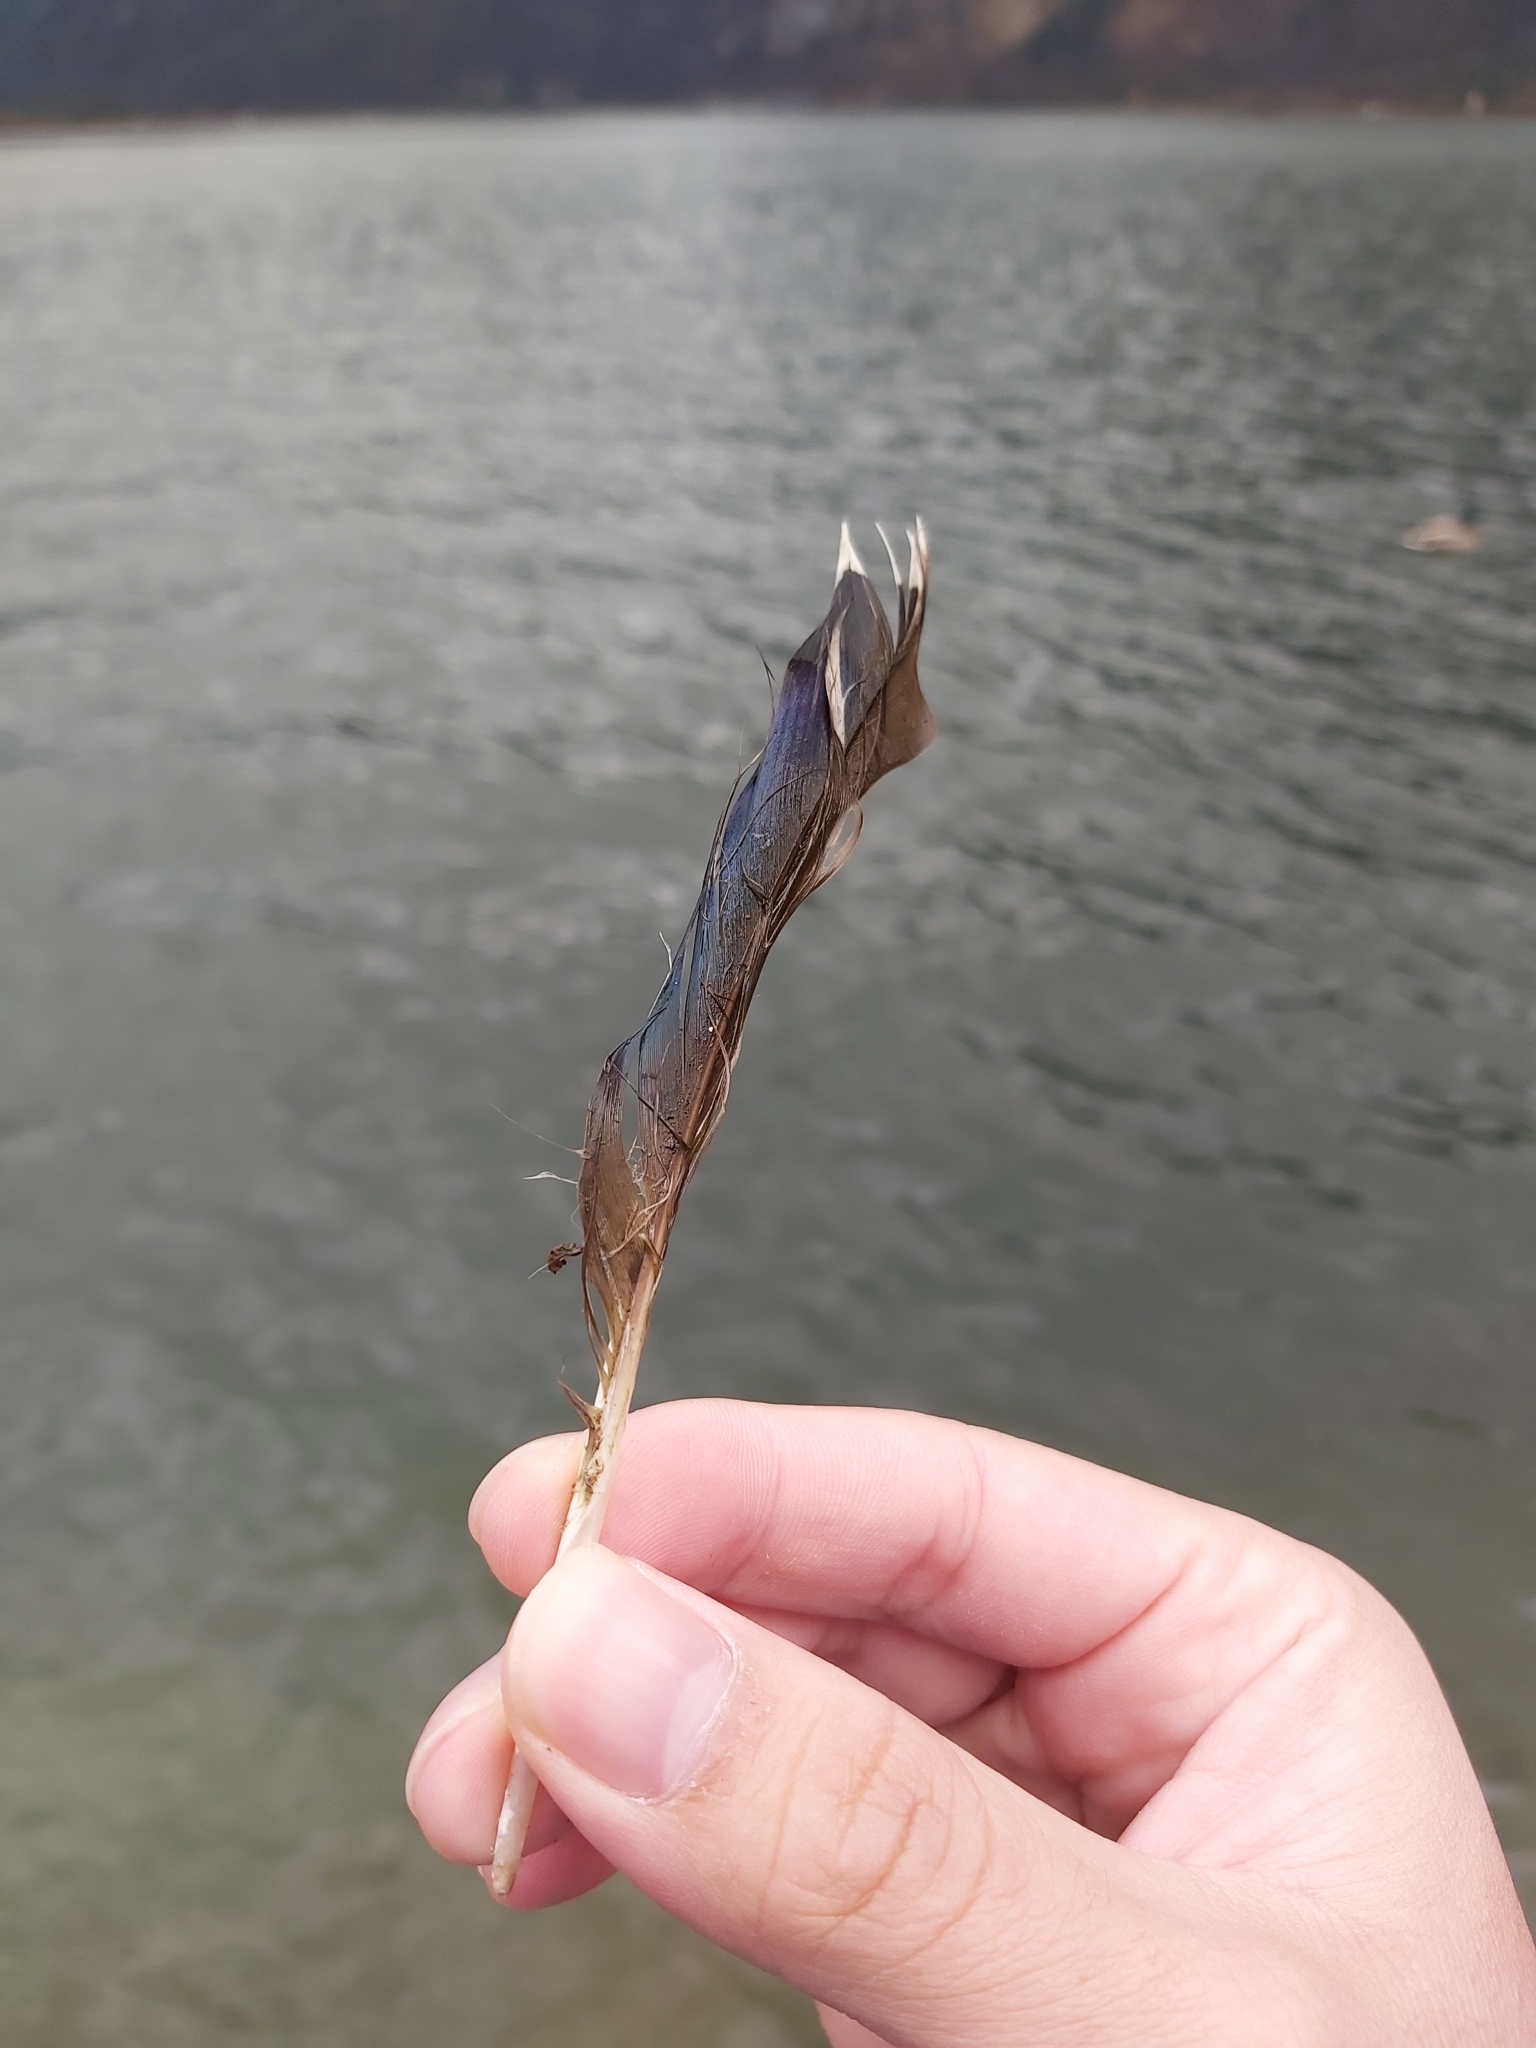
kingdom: Animalia
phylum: Chordata
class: Aves
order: Anseriformes
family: Anatidae
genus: Anas
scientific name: Anas platyrhynchos
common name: Mallard
